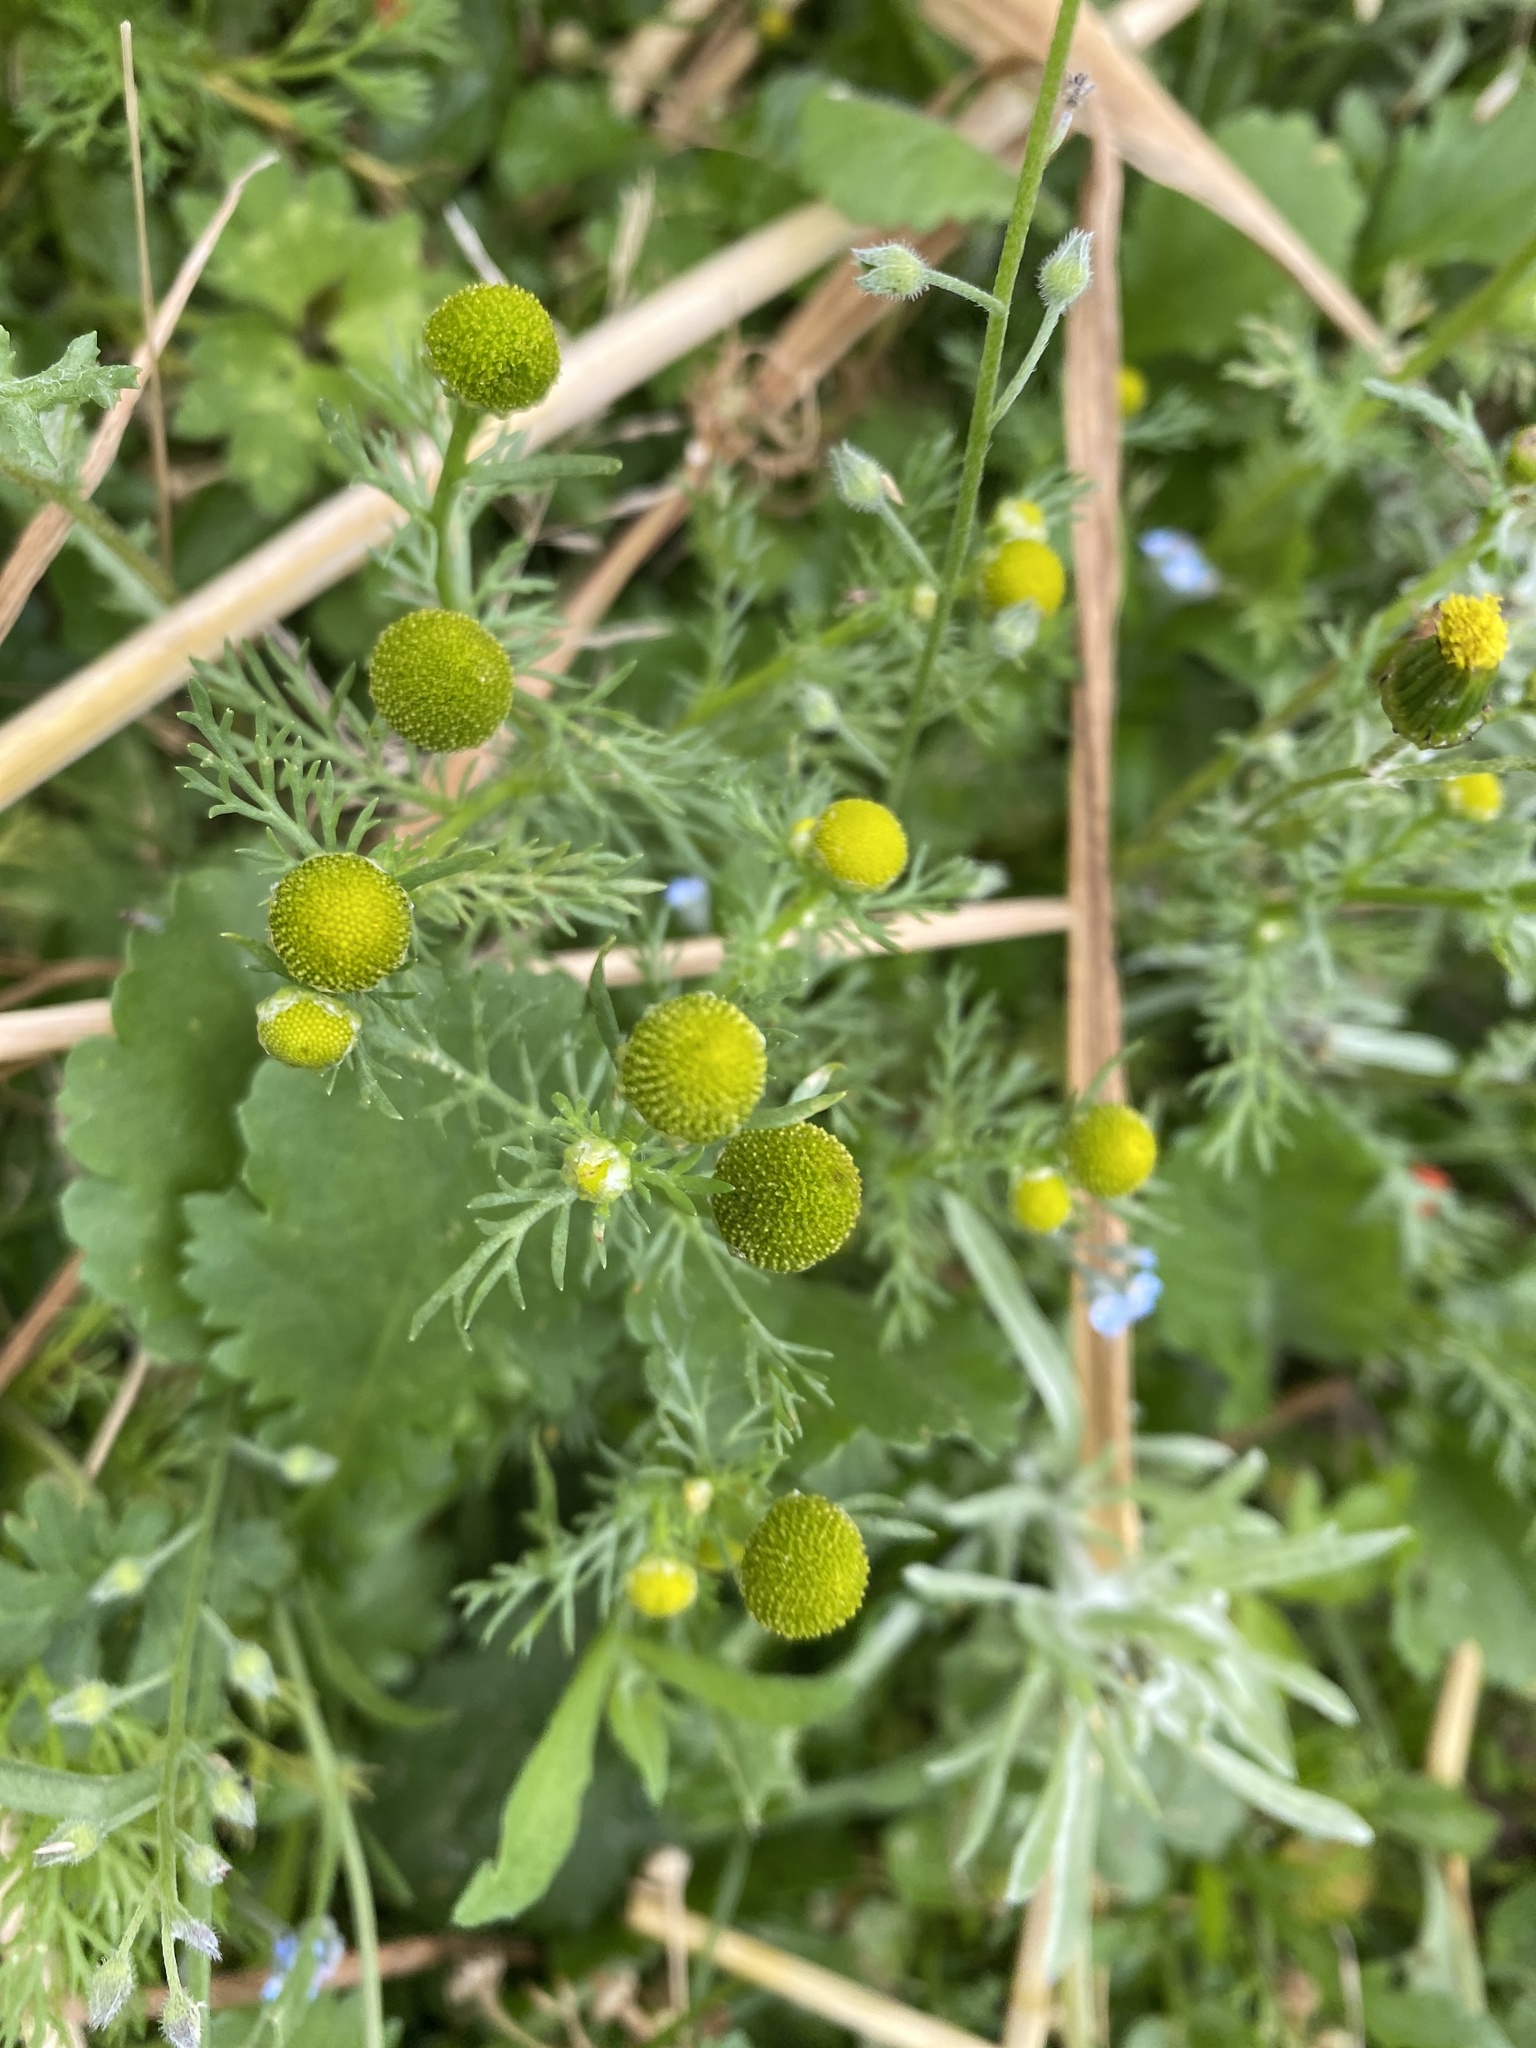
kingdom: Plantae
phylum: Tracheophyta
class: Magnoliopsida
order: Asterales
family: Asteraceae
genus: Matricaria
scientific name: Matricaria discoidea
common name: Disc mayweed
